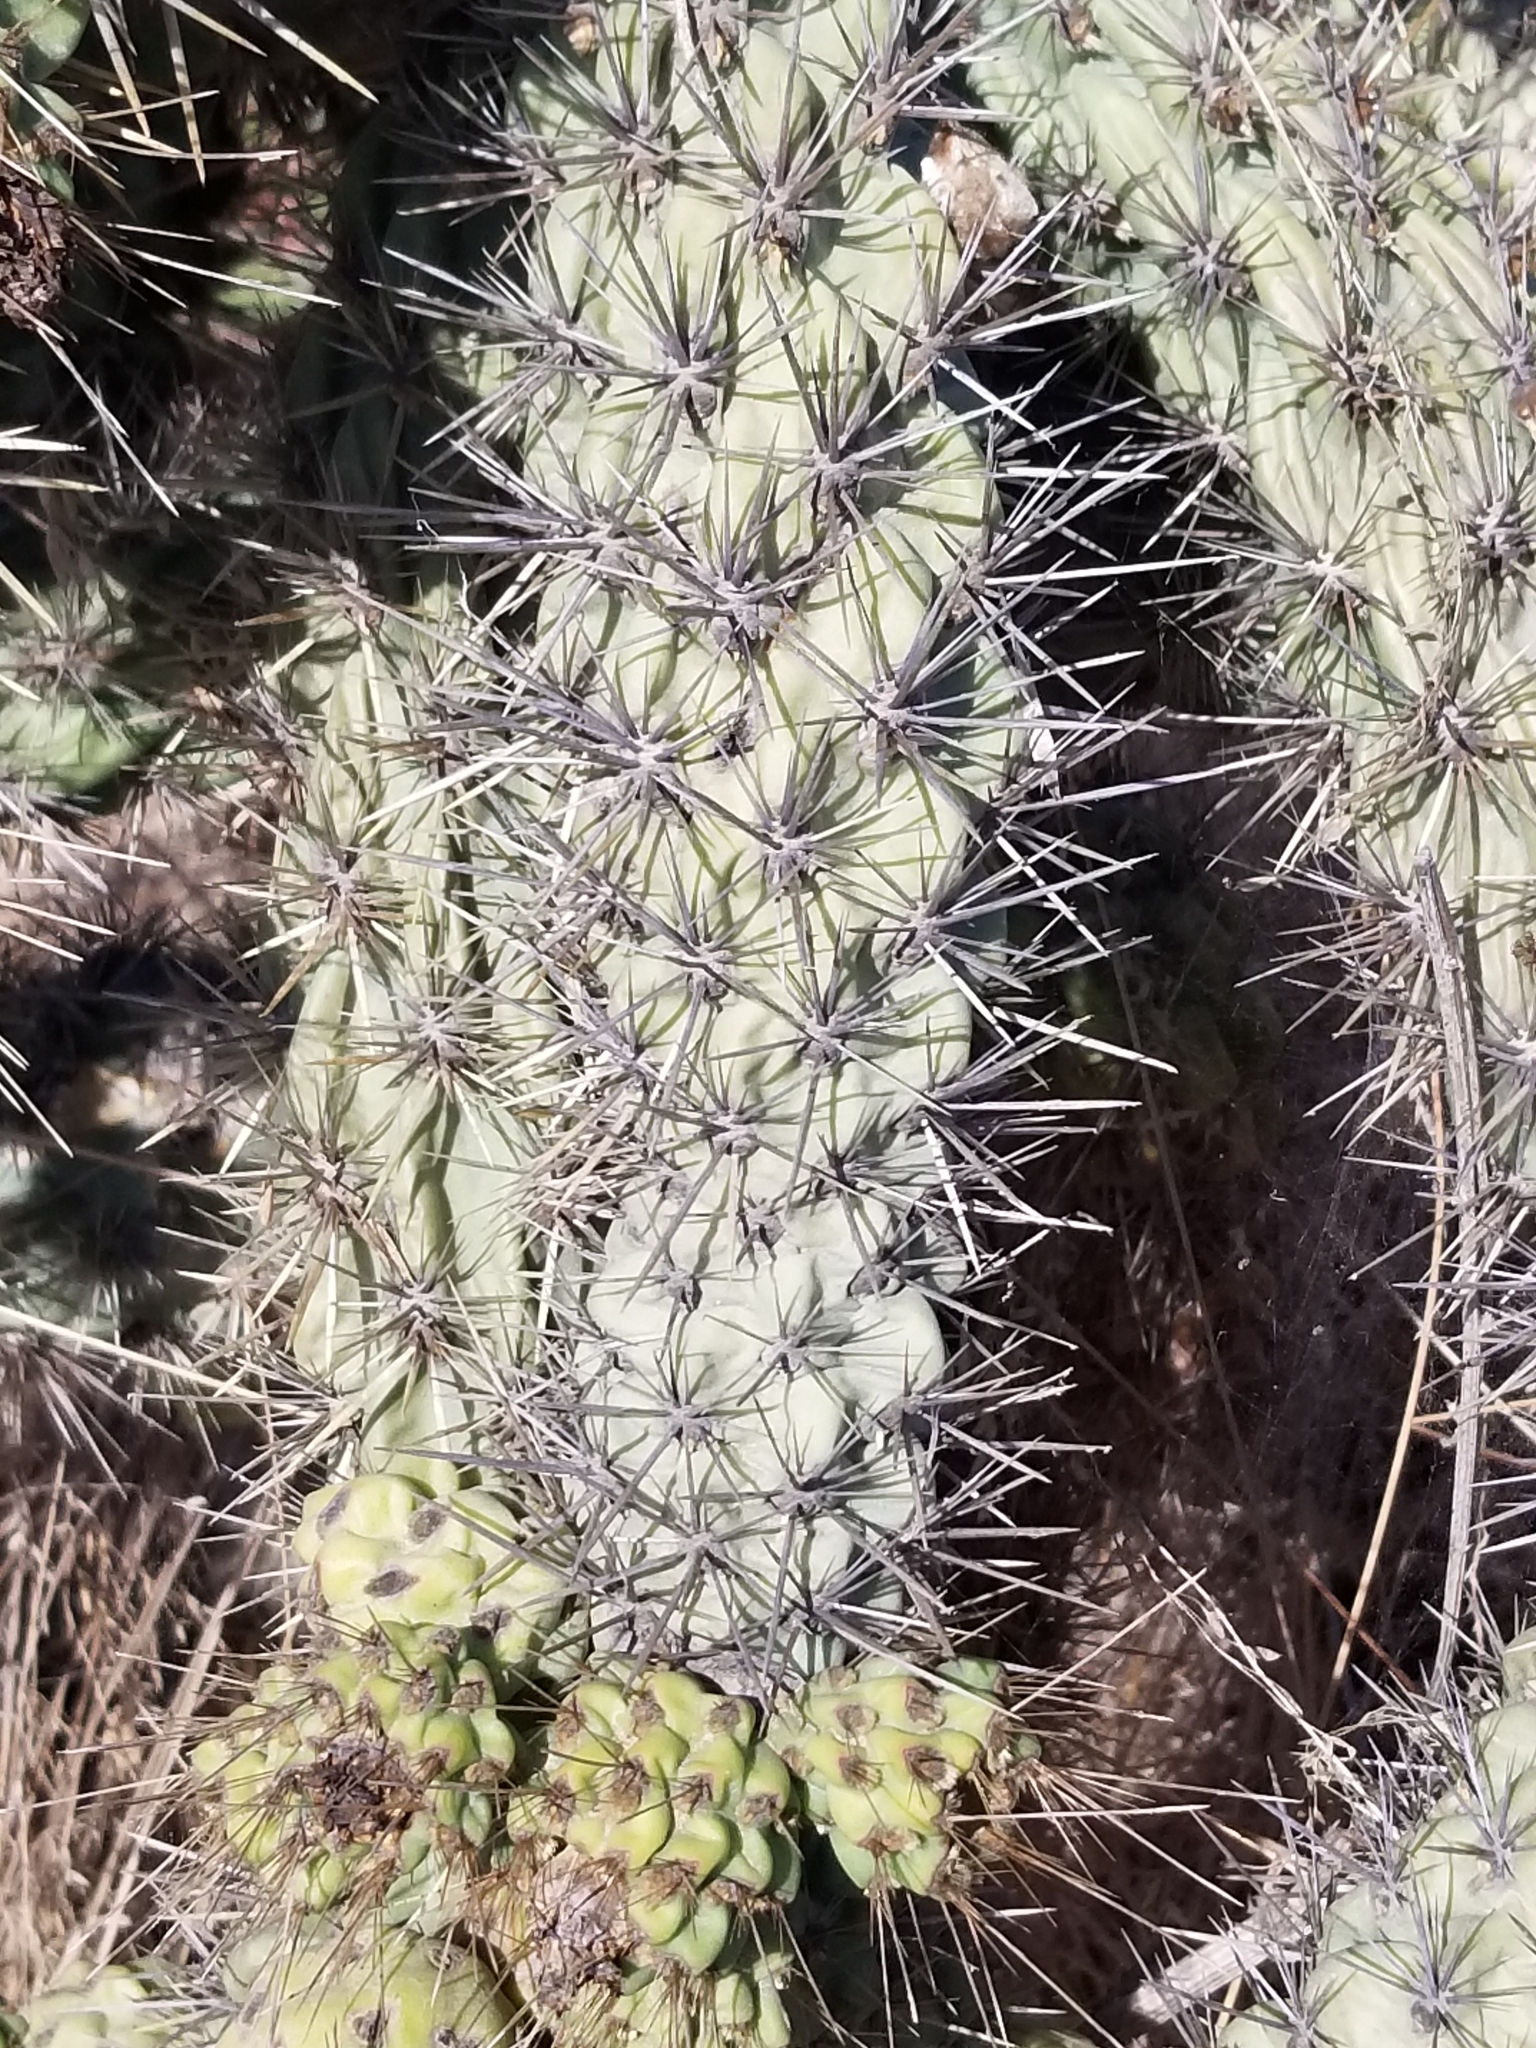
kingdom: Plantae
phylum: Tracheophyta
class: Magnoliopsida
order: Caryophyllales
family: Cactaceae
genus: Cylindropuntia
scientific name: Cylindropuntia prolifera
